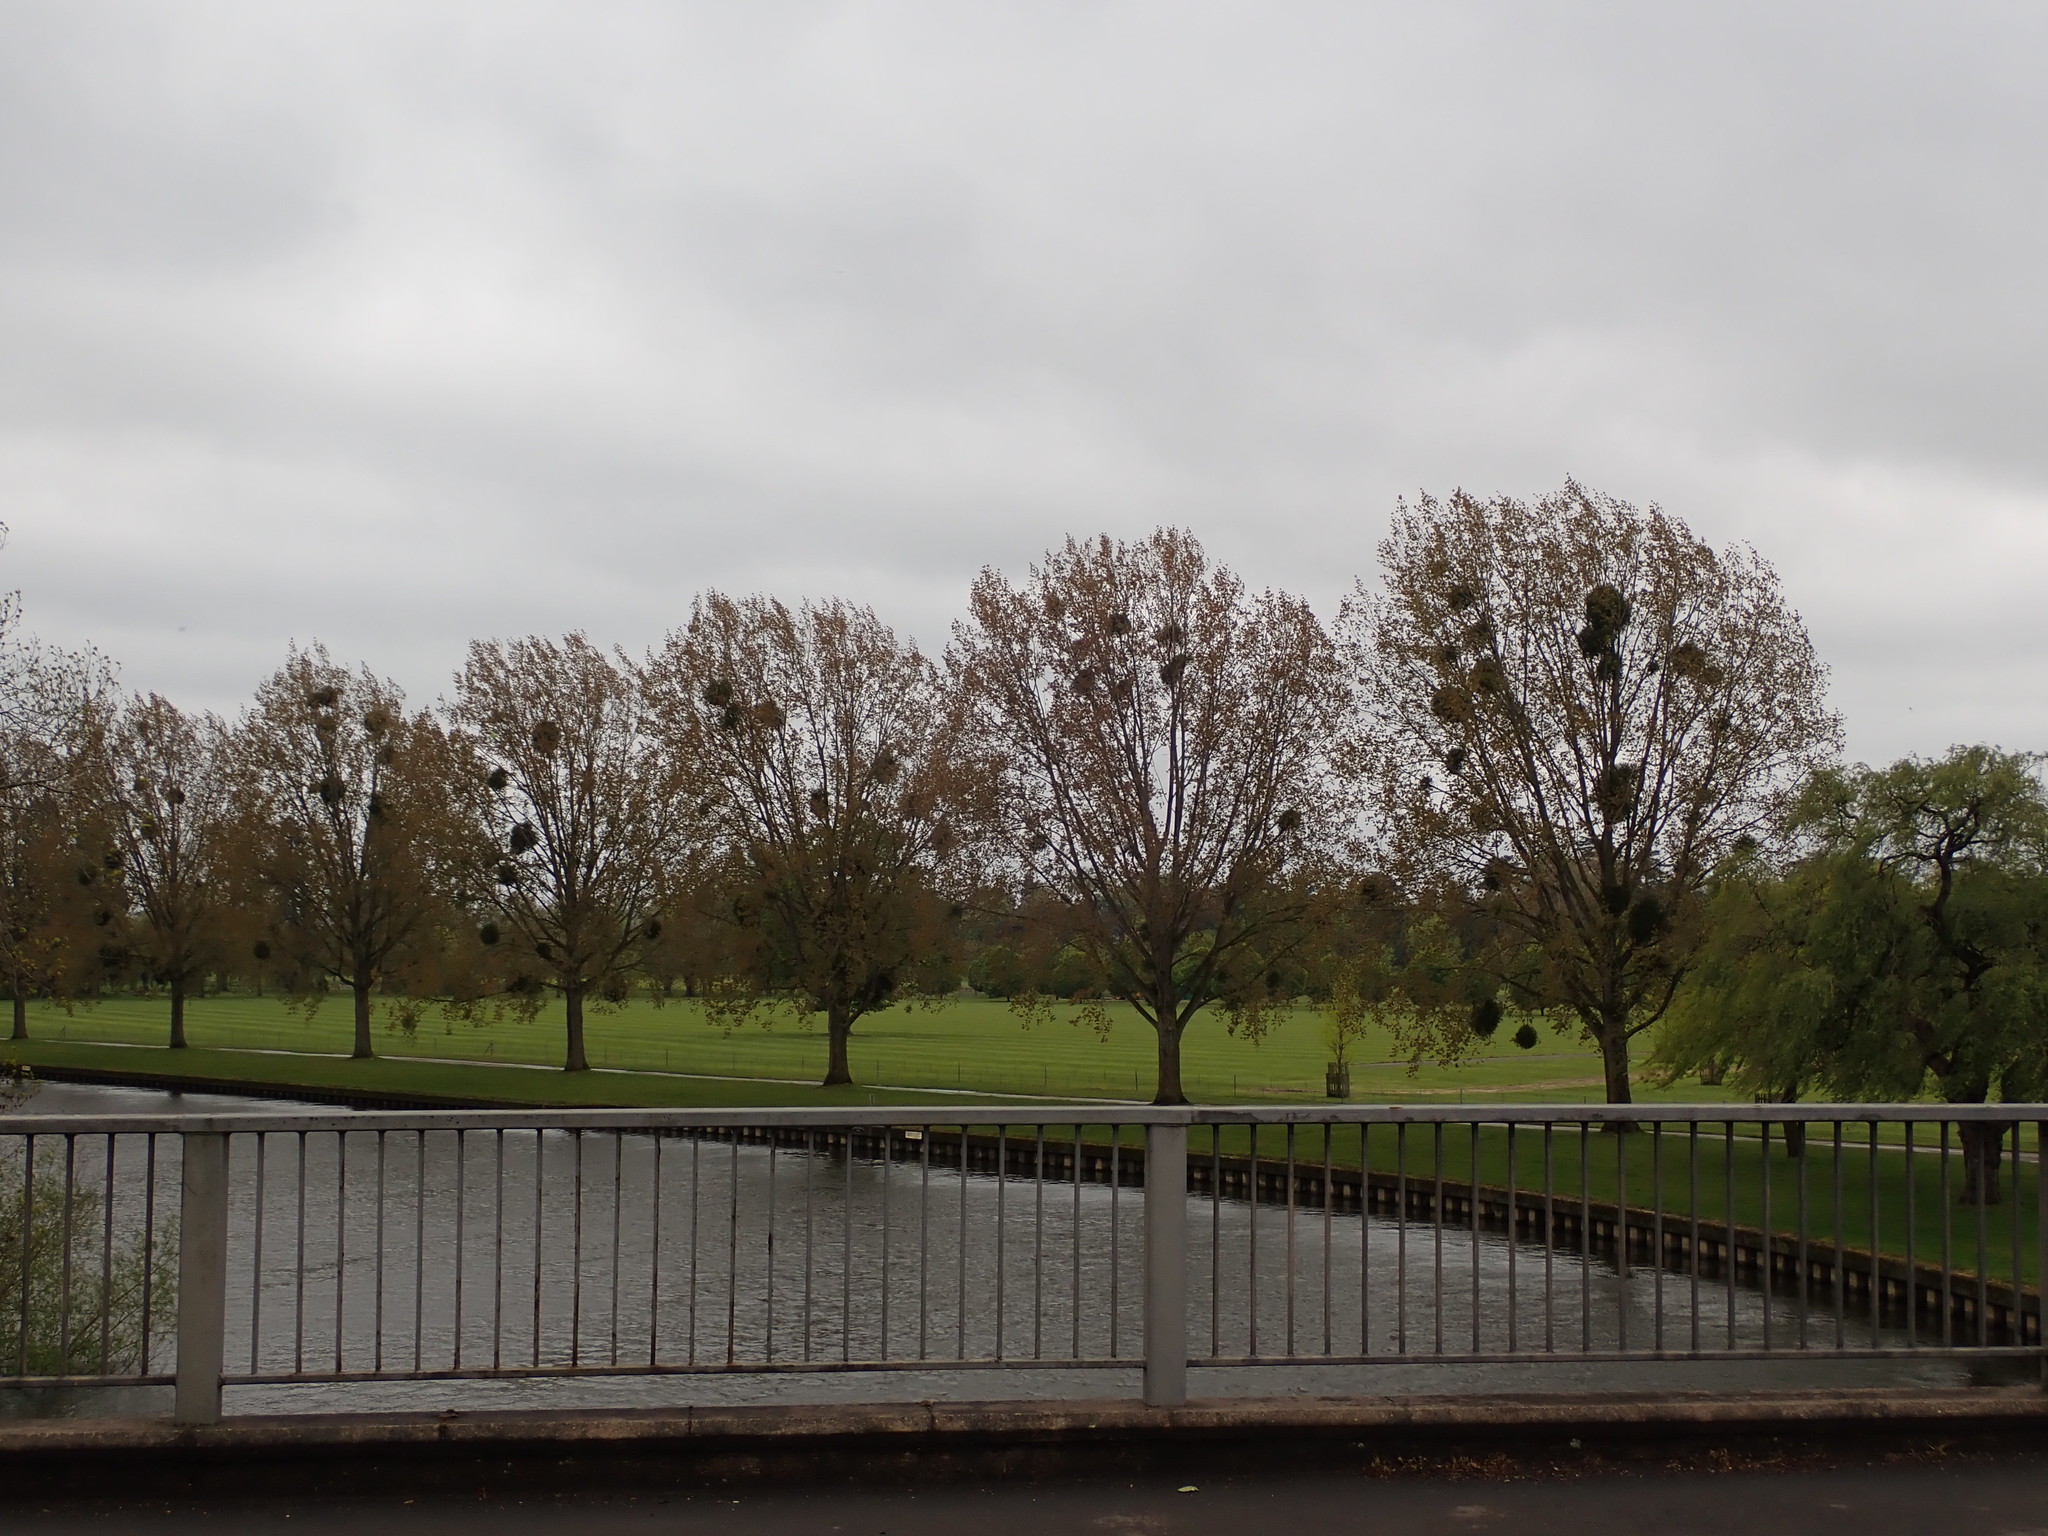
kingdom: Plantae
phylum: Tracheophyta
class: Magnoliopsida
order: Santalales
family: Viscaceae
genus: Viscum
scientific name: Viscum album
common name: Mistletoe
